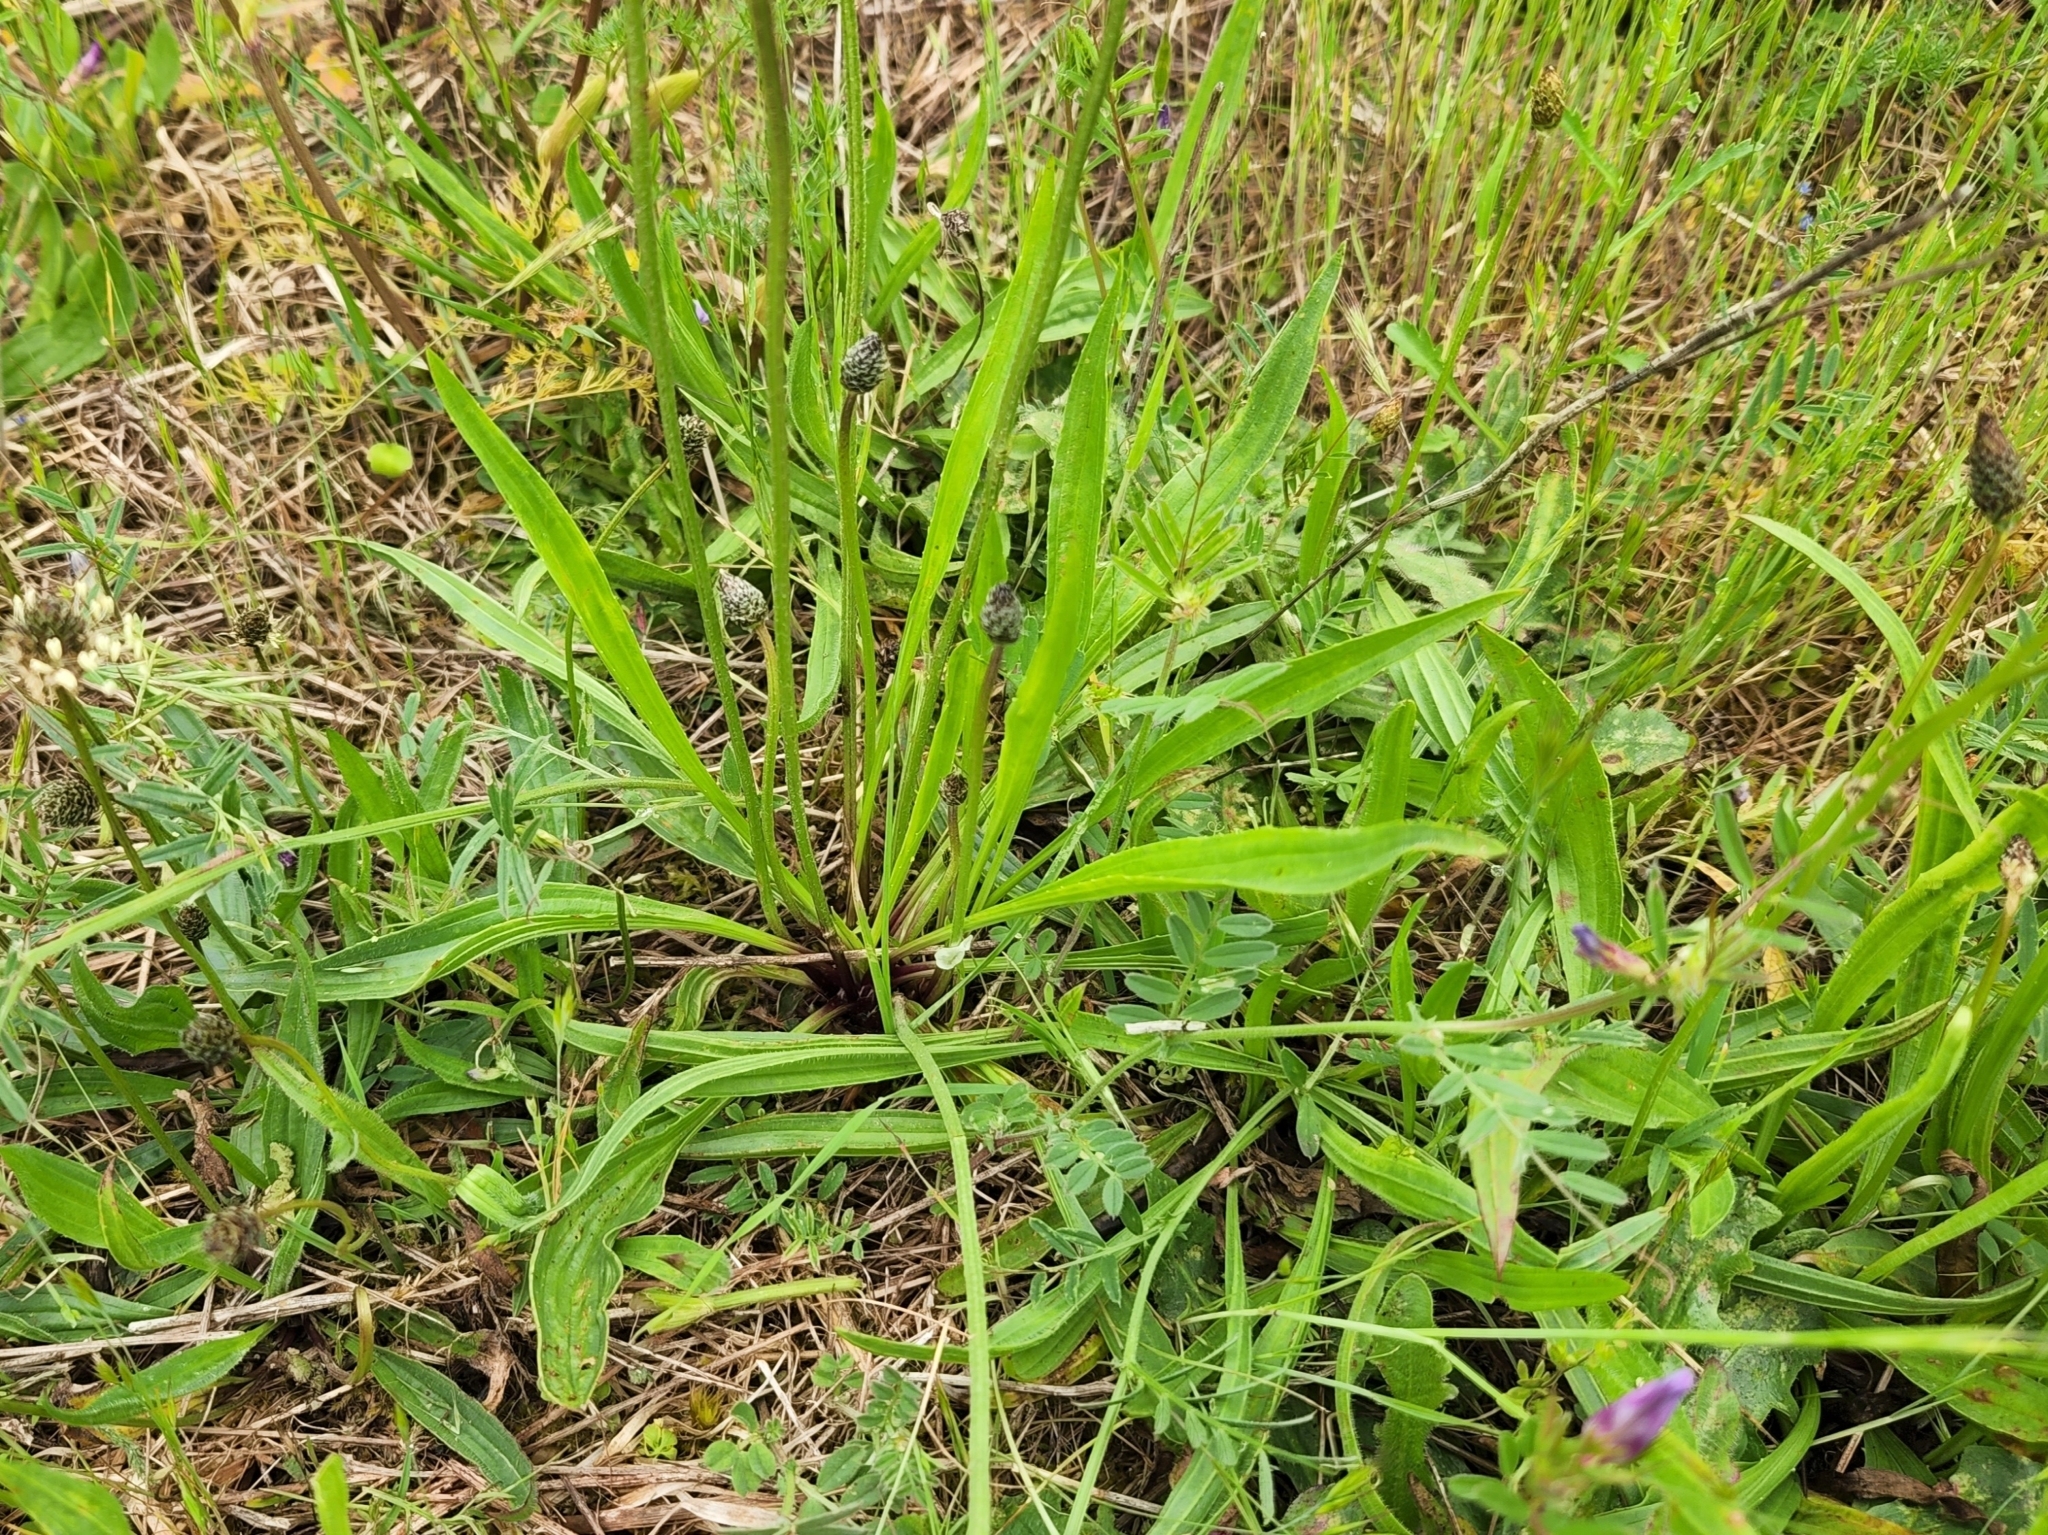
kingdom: Plantae
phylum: Tracheophyta
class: Magnoliopsida
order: Lamiales
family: Plantaginaceae
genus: Plantago
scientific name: Plantago lanceolata
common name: Ribwort plantain
